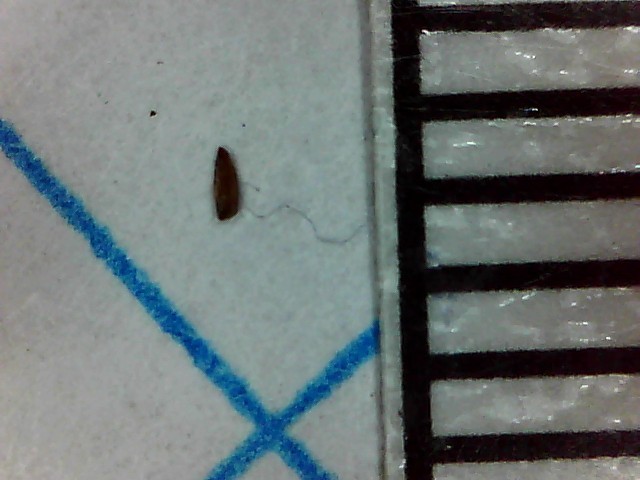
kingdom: Plantae
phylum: Tracheophyta
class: Magnoliopsida
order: Myrtales
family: Onagraceae
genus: Epilobium
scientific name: Epilobium tetragonum
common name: Square-stemmed willowherb
